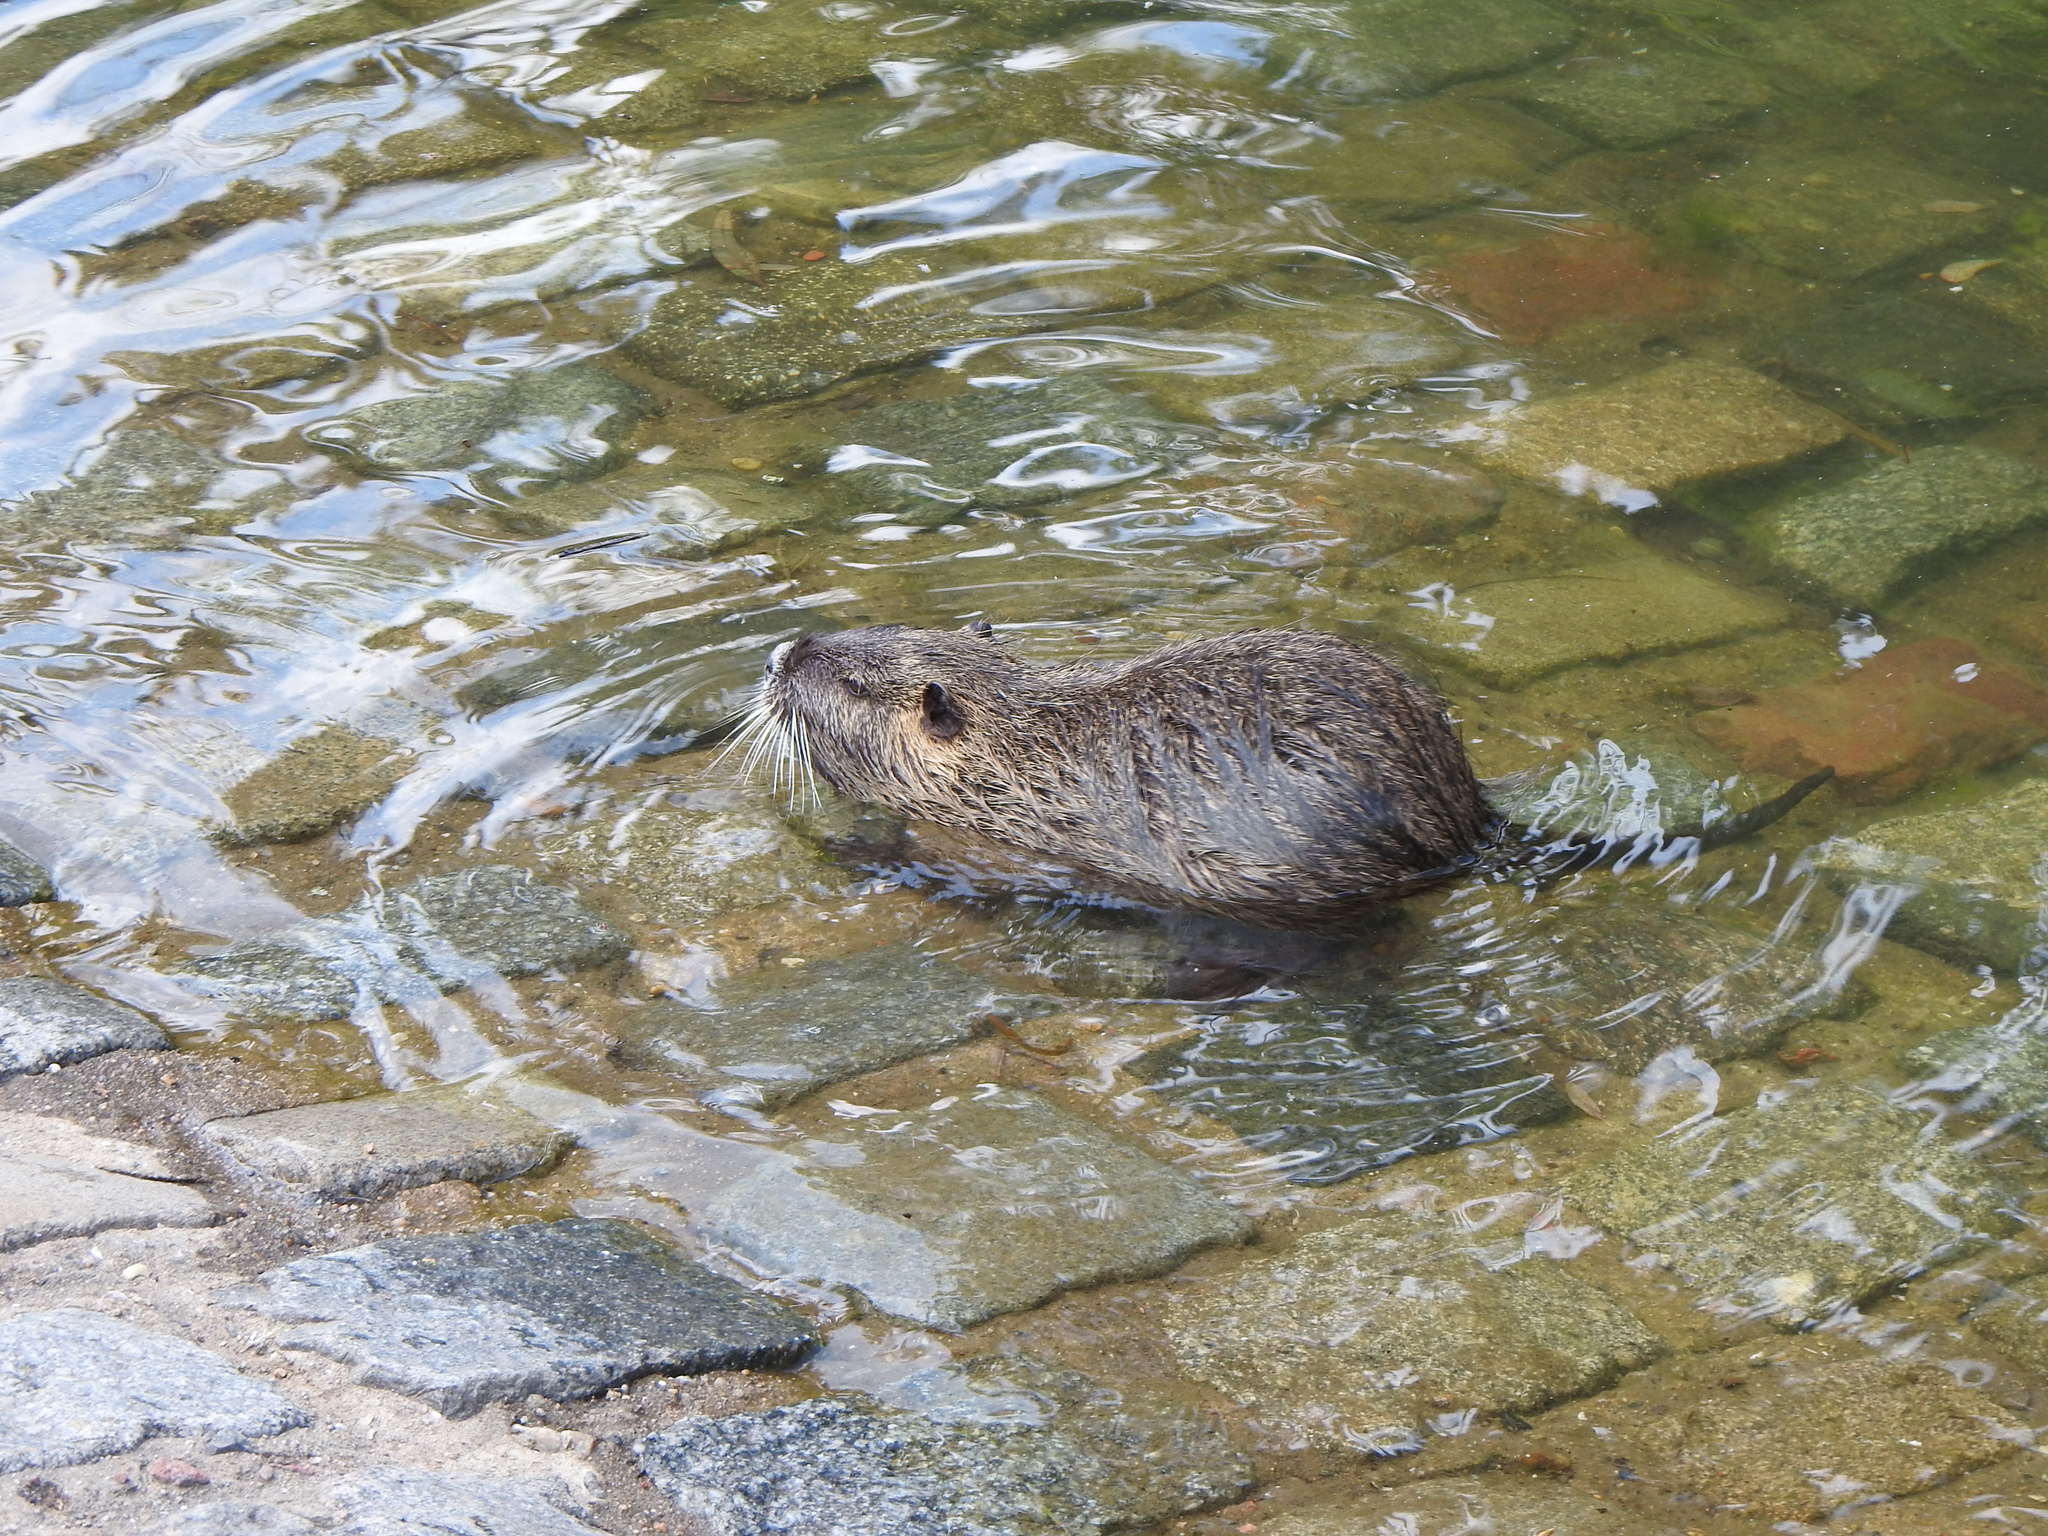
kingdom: Animalia
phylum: Chordata
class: Mammalia
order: Rodentia
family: Myocastoridae
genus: Myocastor
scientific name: Myocastor coypus
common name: Coypu
